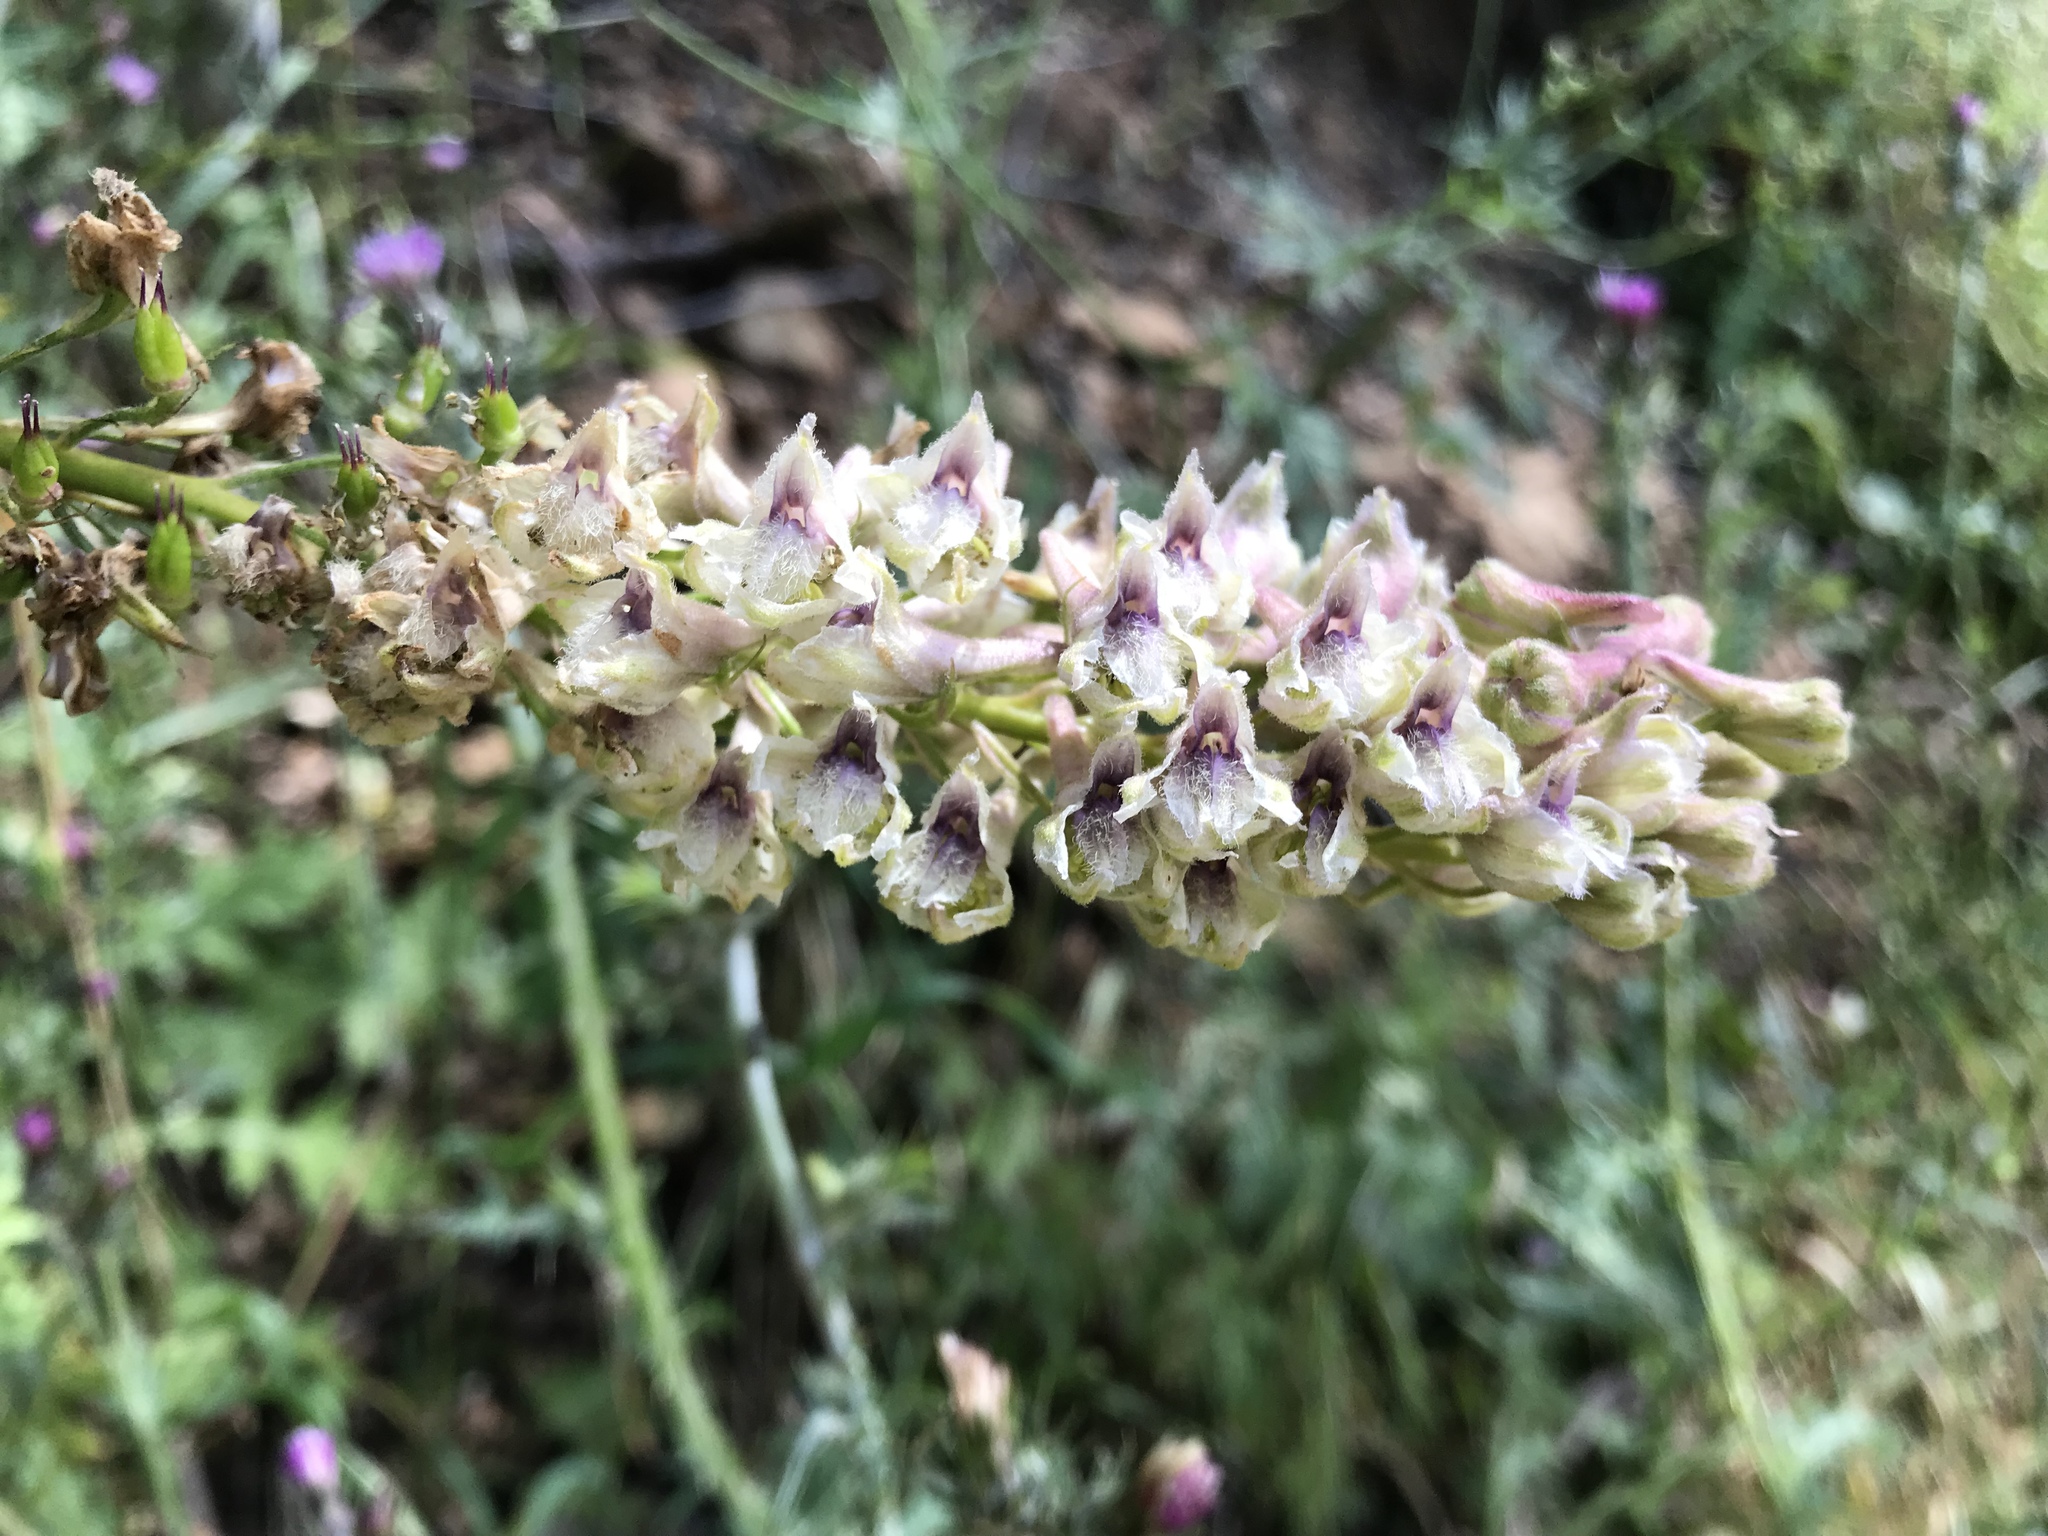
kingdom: Plantae
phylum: Tracheophyta
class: Magnoliopsida
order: Ranunculales
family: Ranunculaceae
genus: Delphinium
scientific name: Delphinium californicum
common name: California larkspur
